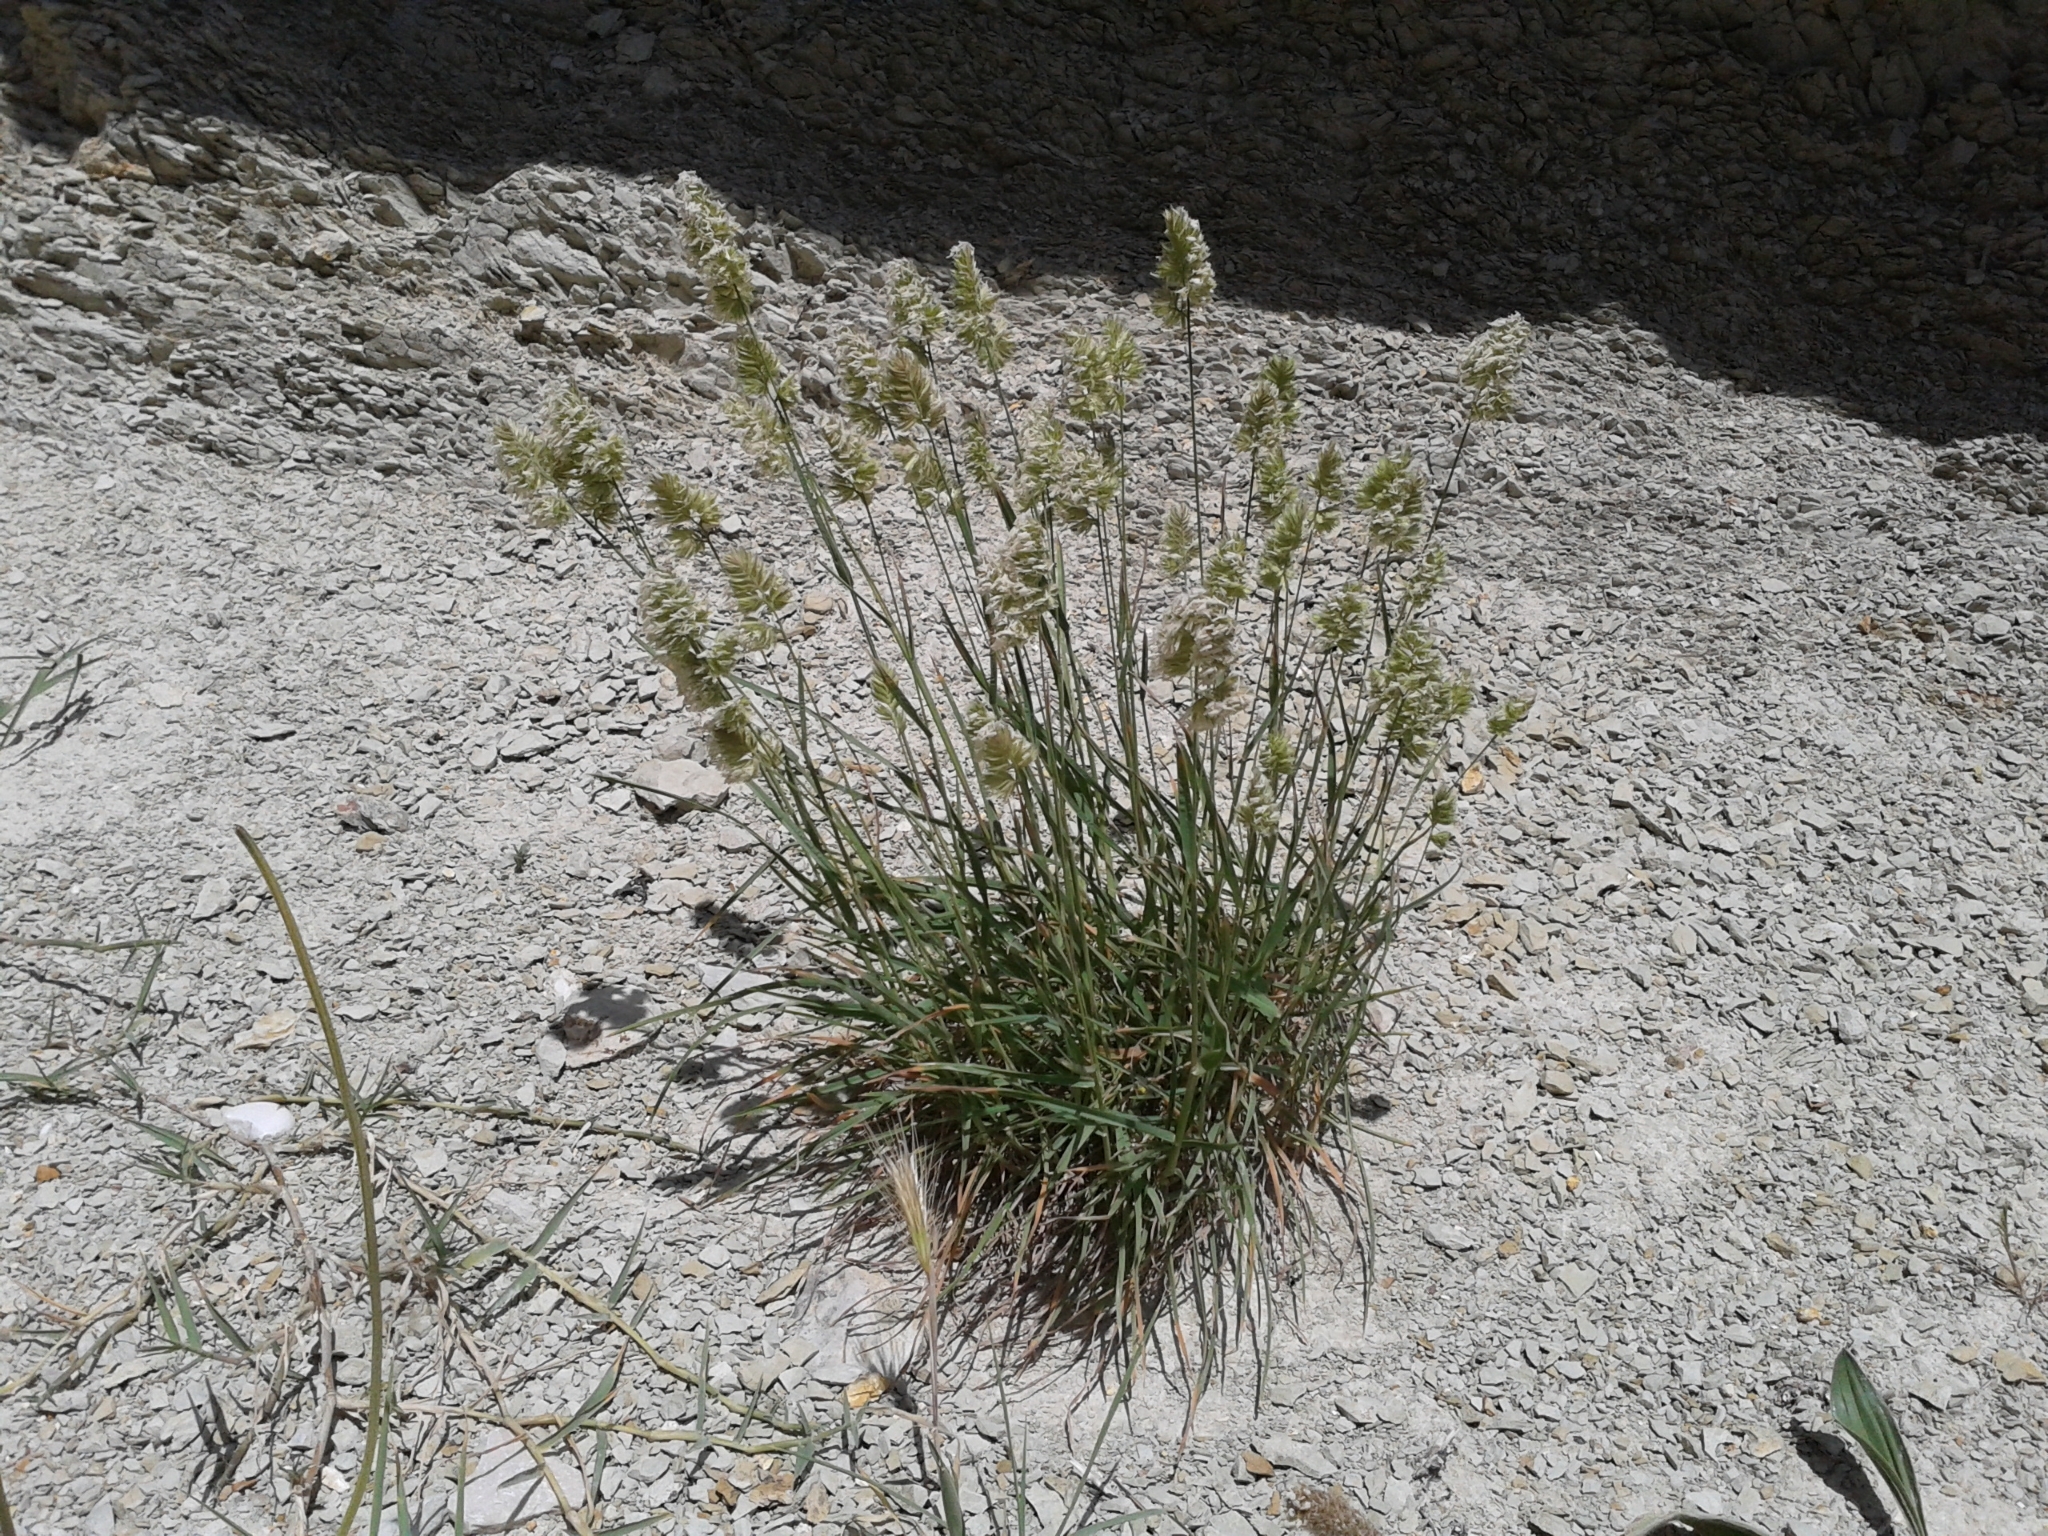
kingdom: Plantae
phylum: Tracheophyta
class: Liliopsida
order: Poales
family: Poaceae
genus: Dactylis
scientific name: Dactylis glomerata
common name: Orchardgrass
